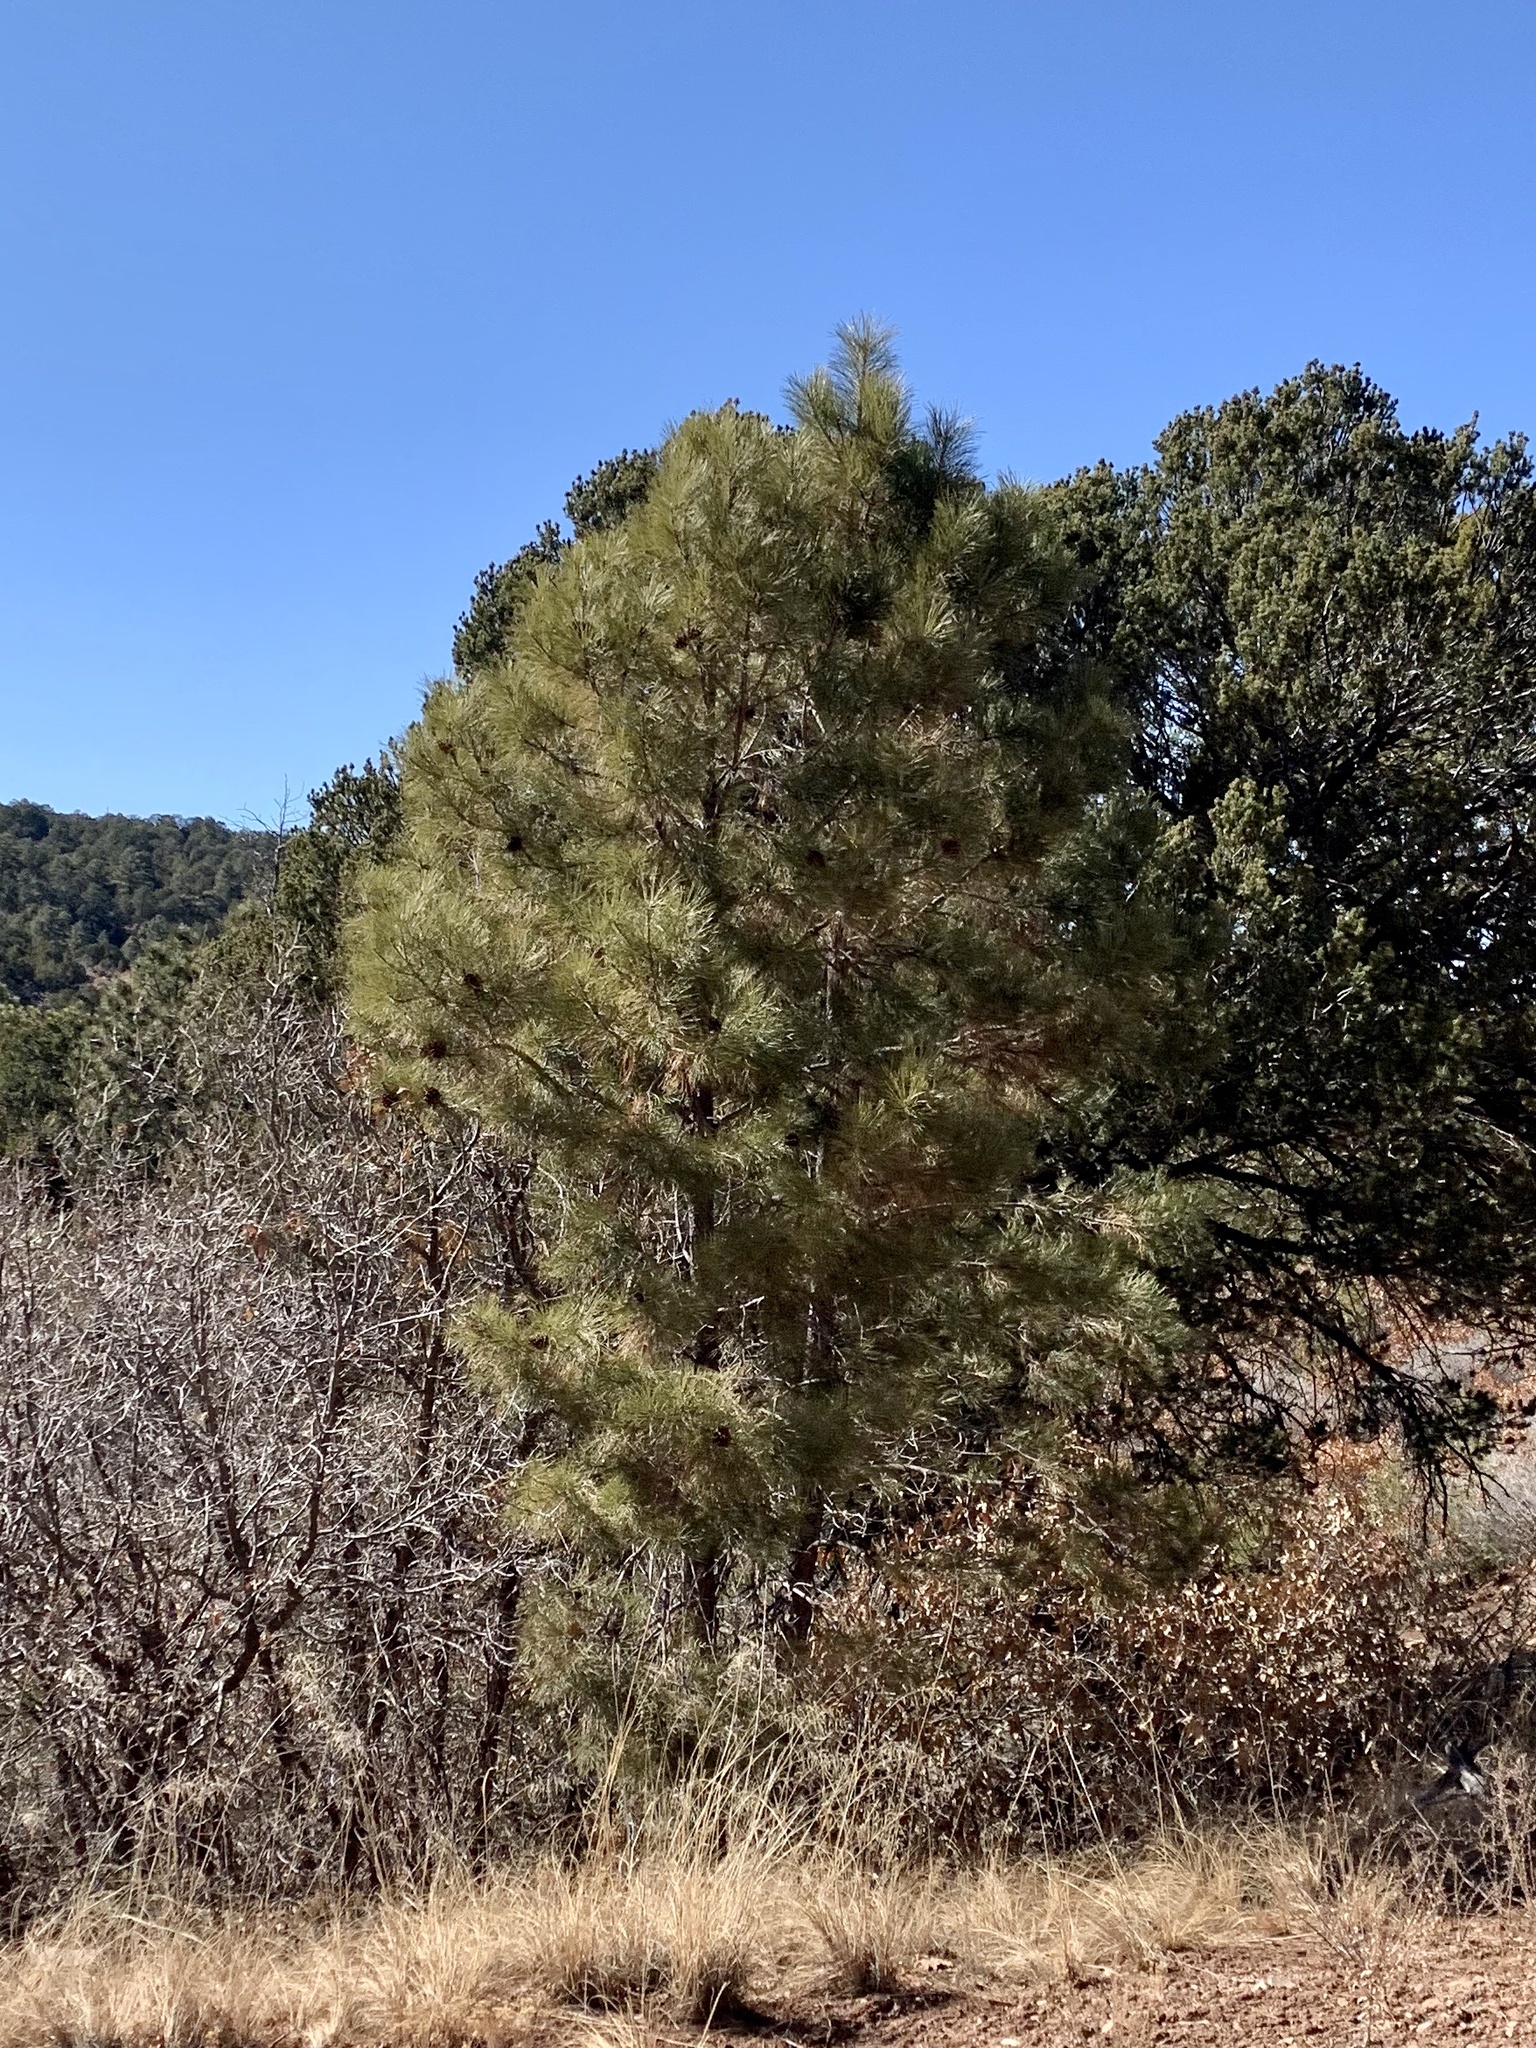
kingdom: Plantae
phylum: Tracheophyta
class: Pinopsida
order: Pinales
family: Pinaceae
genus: Pinus
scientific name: Pinus ponderosa
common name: Western yellow-pine
